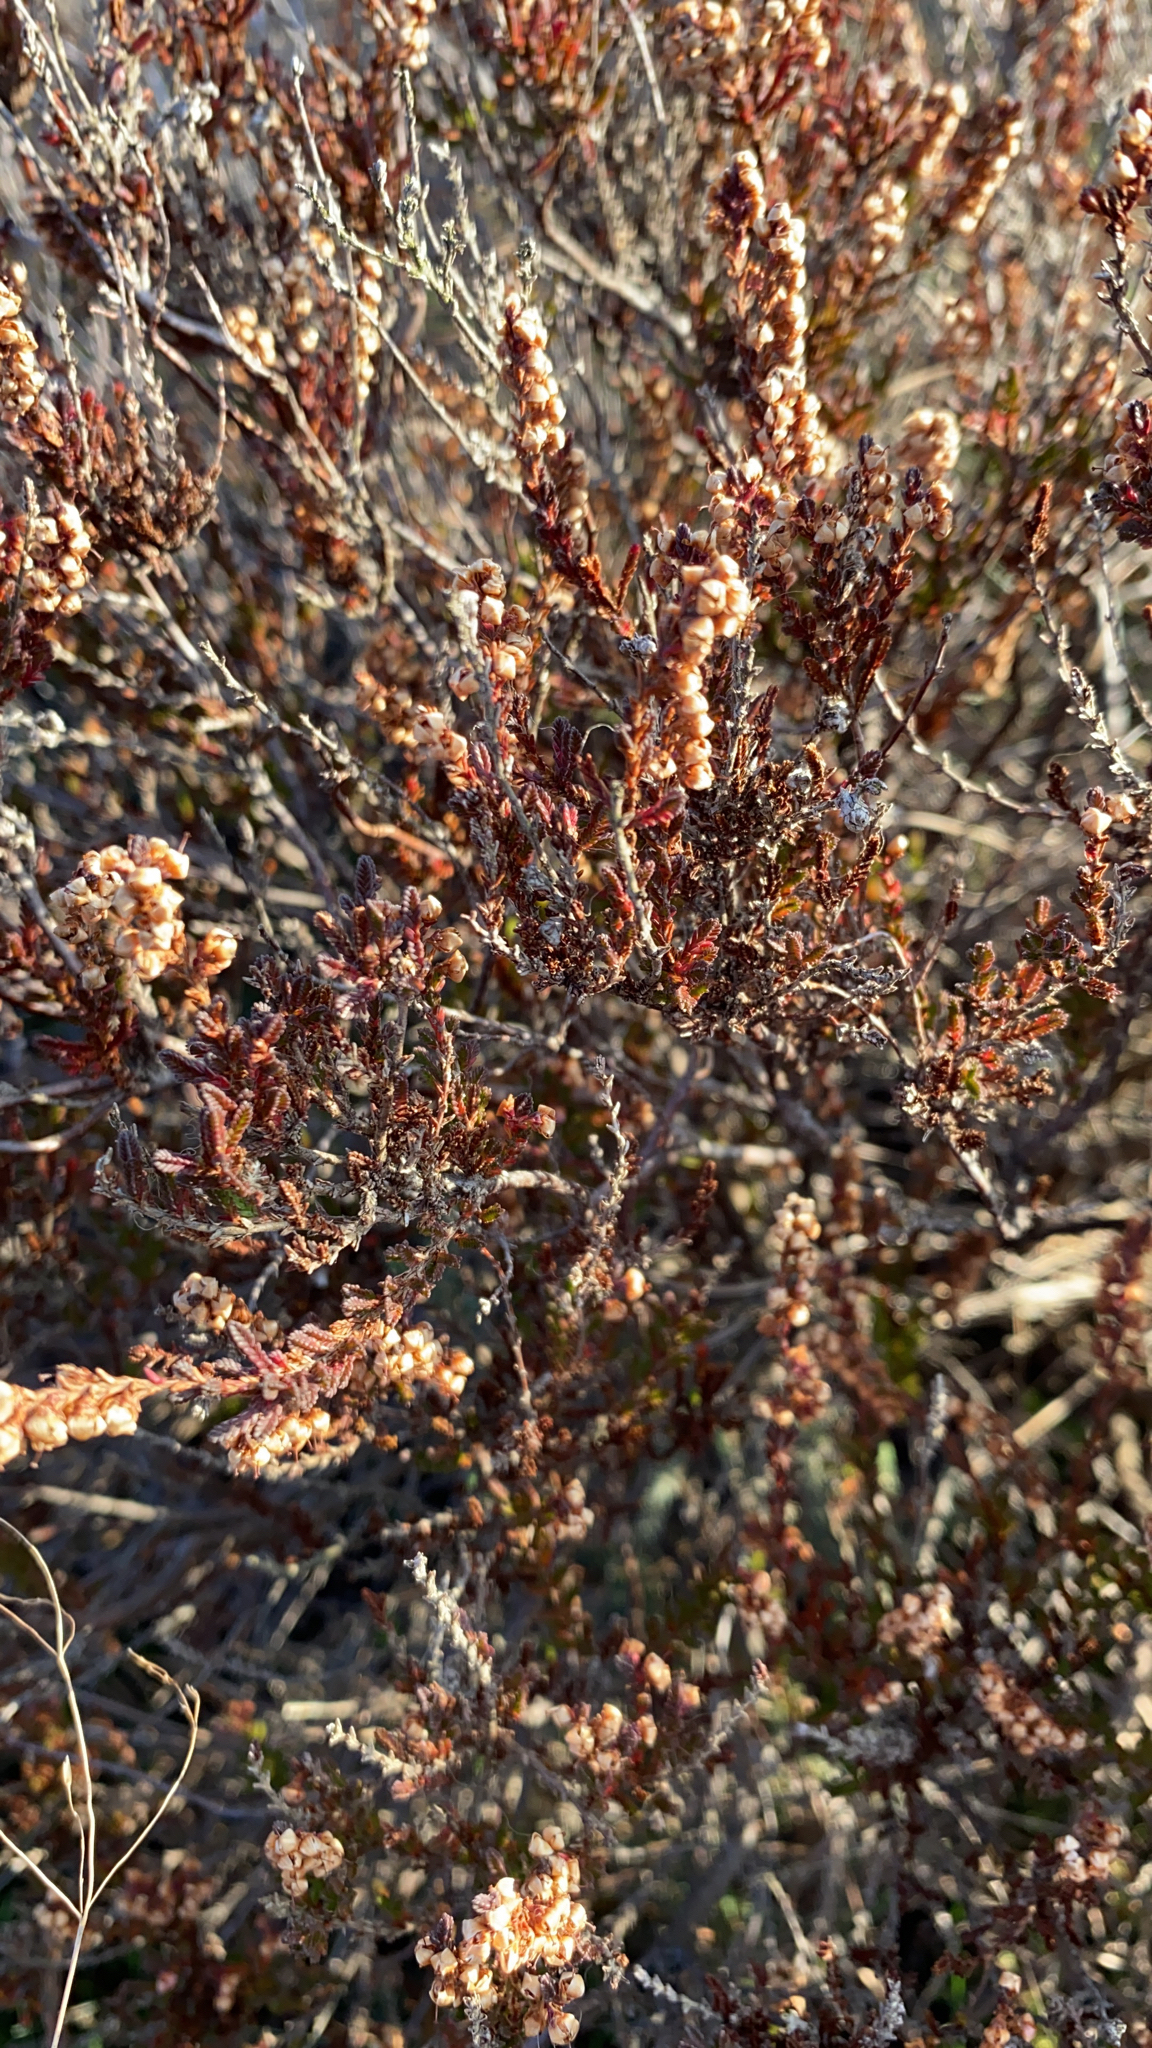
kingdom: Plantae
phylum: Tracheophyta
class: Magnoliopsida
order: Ericales
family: Ericaceae
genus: Calluna
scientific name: Calluna vulgaris
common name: Heather
